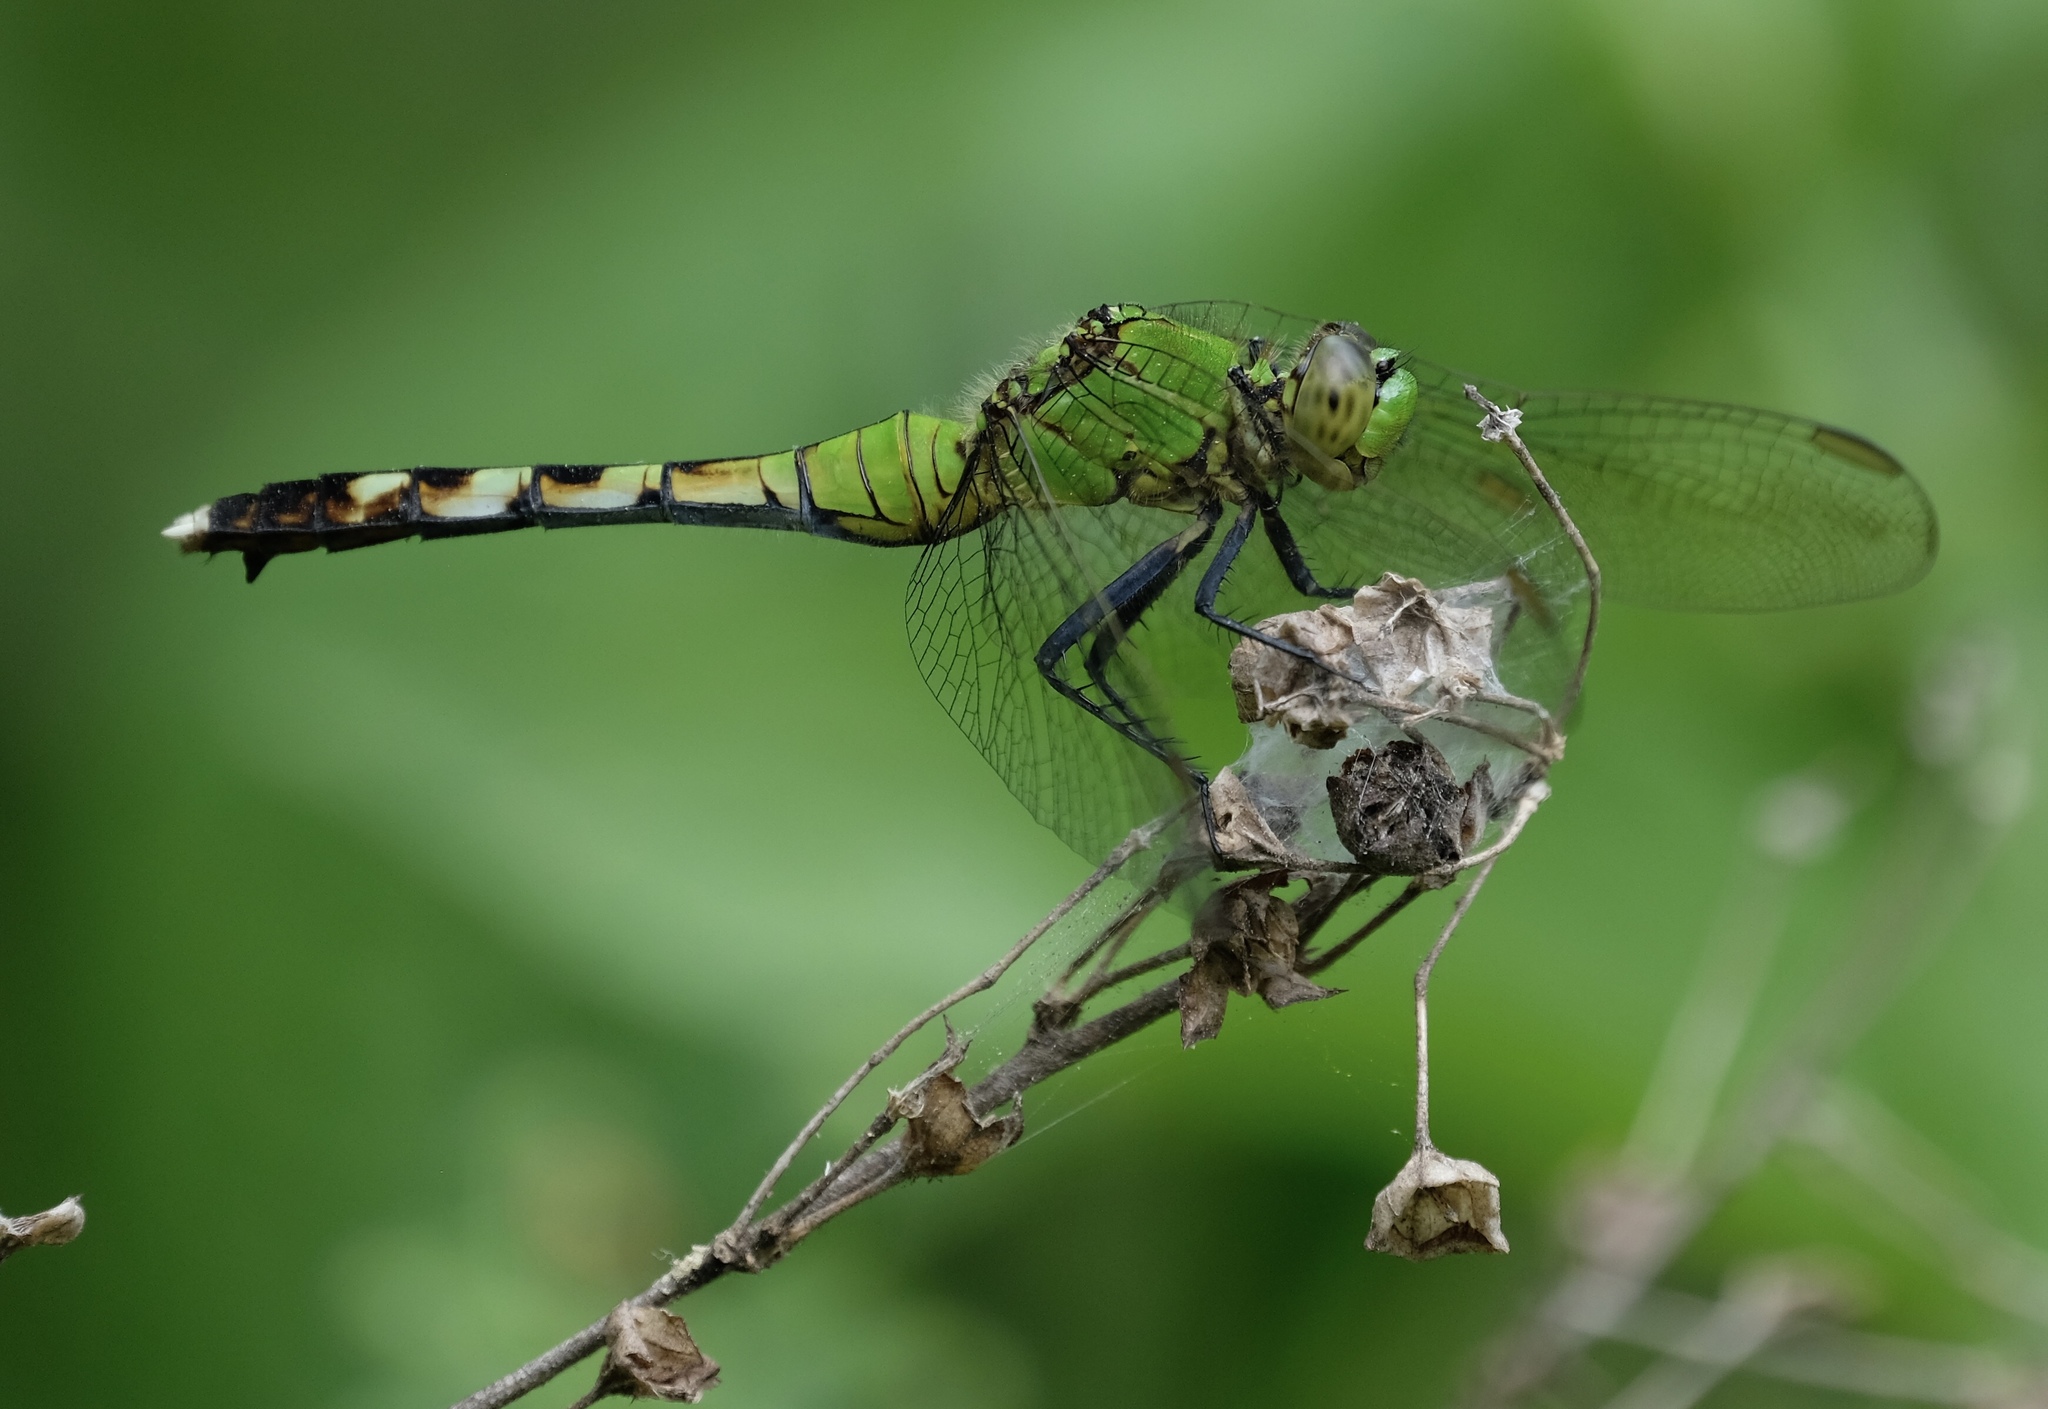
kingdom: Animalia
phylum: Arthropoda
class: Insecta
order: Odonata
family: Libellulidae
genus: Erythemis
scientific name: Erythemis simplicicollis
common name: Eastern pondhawk
